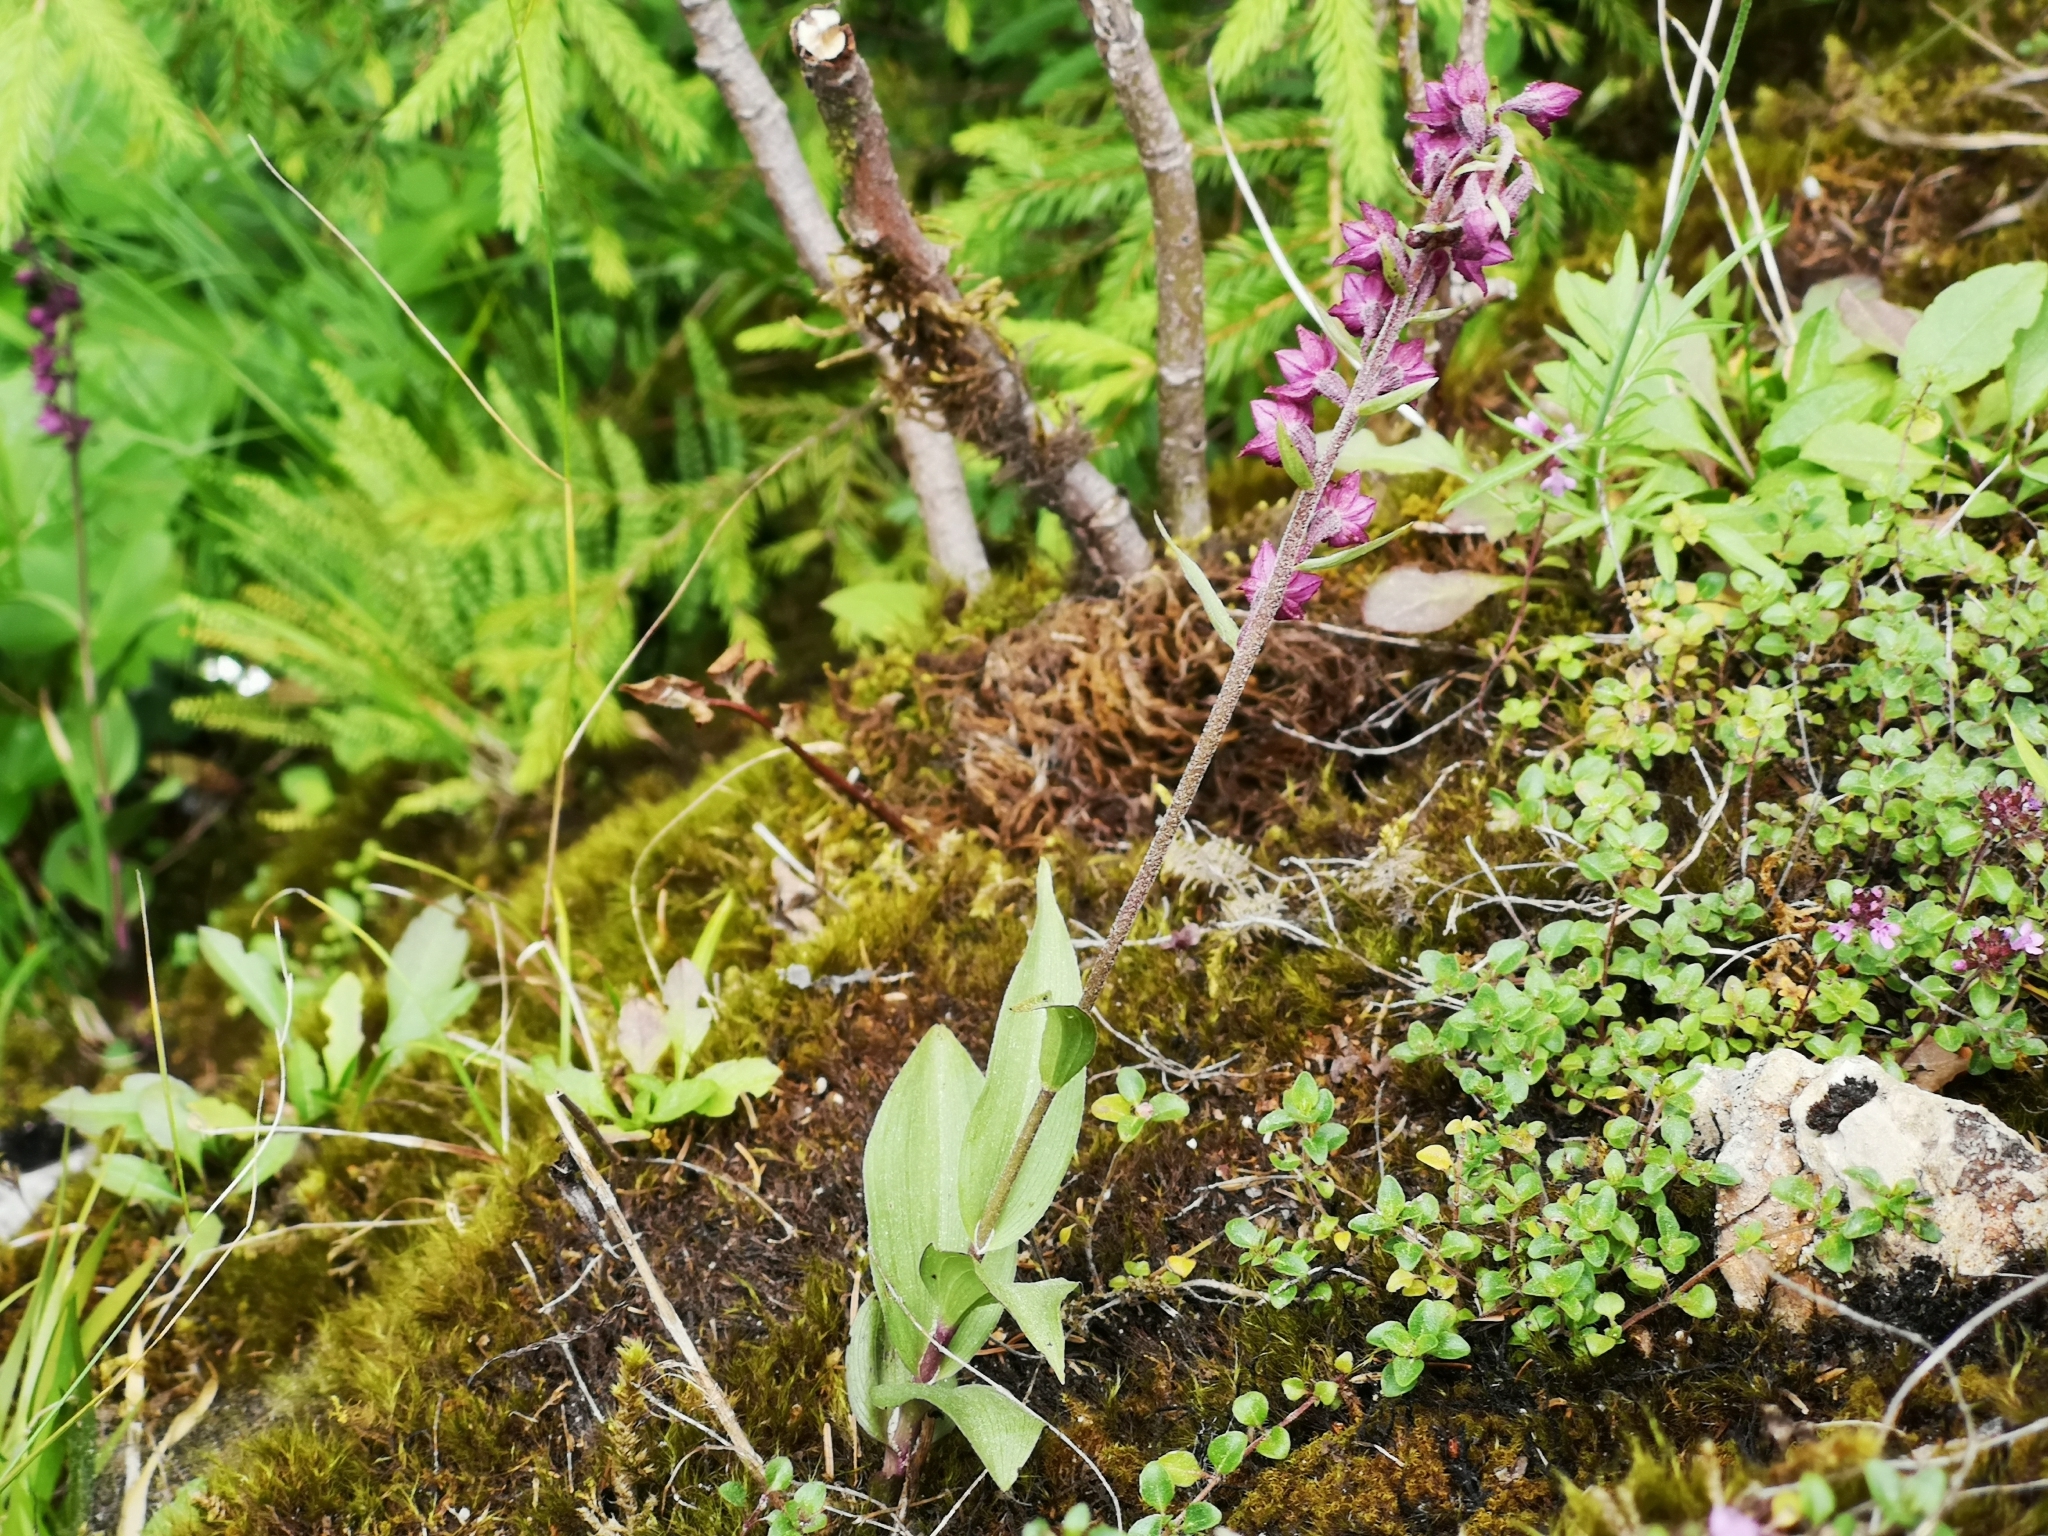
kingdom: Plantae
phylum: Tracheophyta
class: Liliopsida
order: Asparagales
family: Orchidaceae
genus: Epipactis
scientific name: Epipactis atrorubens
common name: Dark-red helleborine
